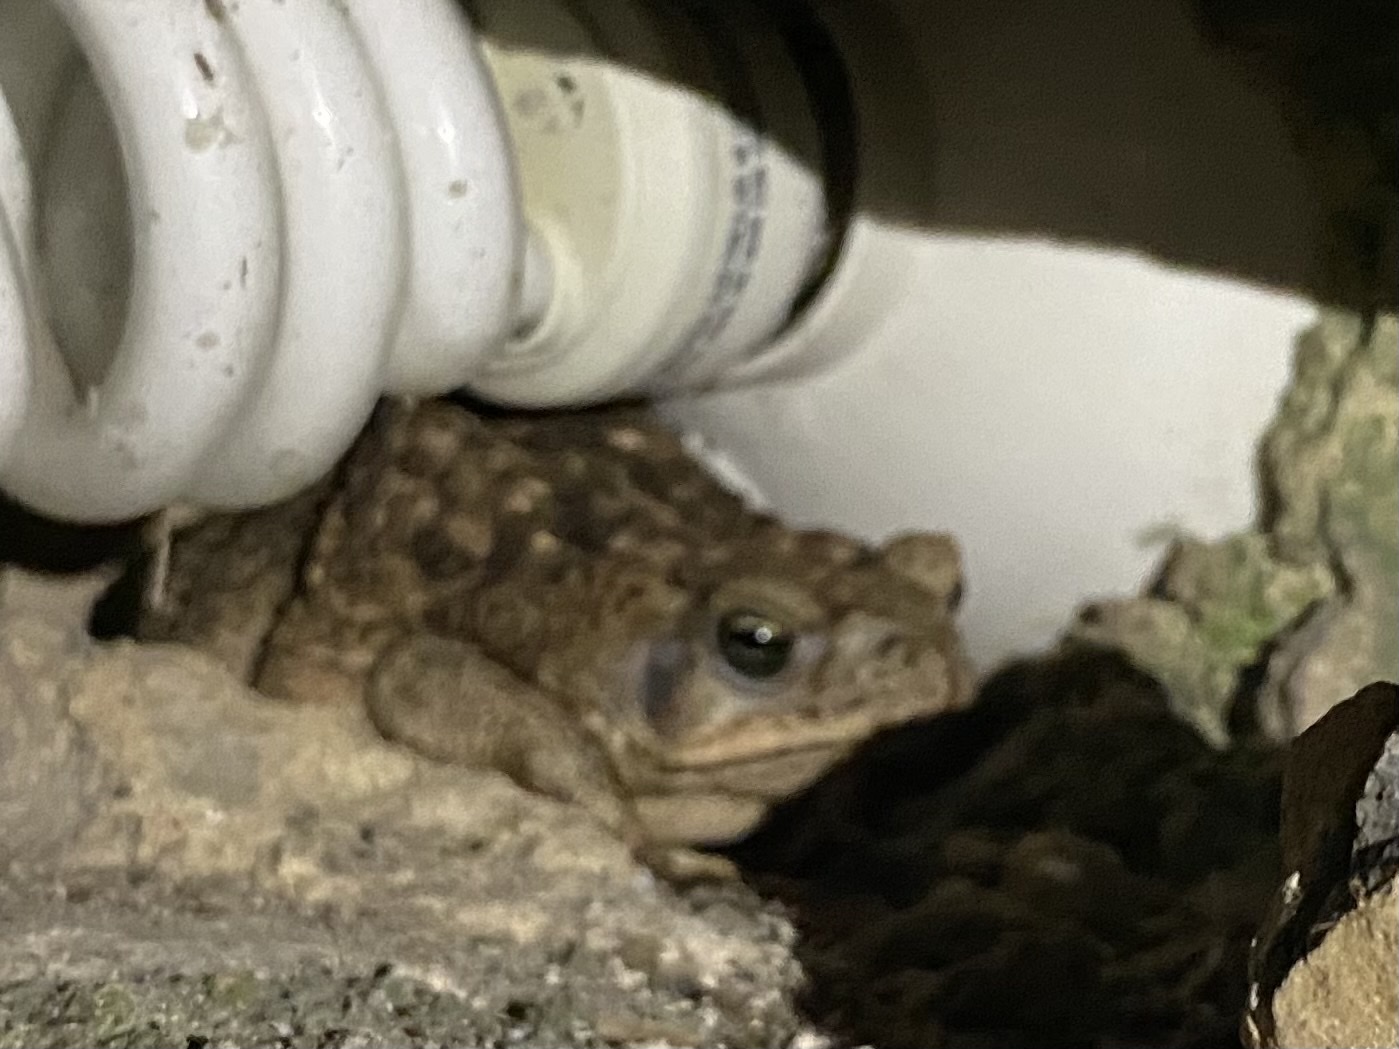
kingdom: Animalia
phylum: Chordata
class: Amphibia
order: Anura
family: Bufonidae
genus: Rhinella
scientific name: Rhinella horribilis
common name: Mesoamerican cane toad
